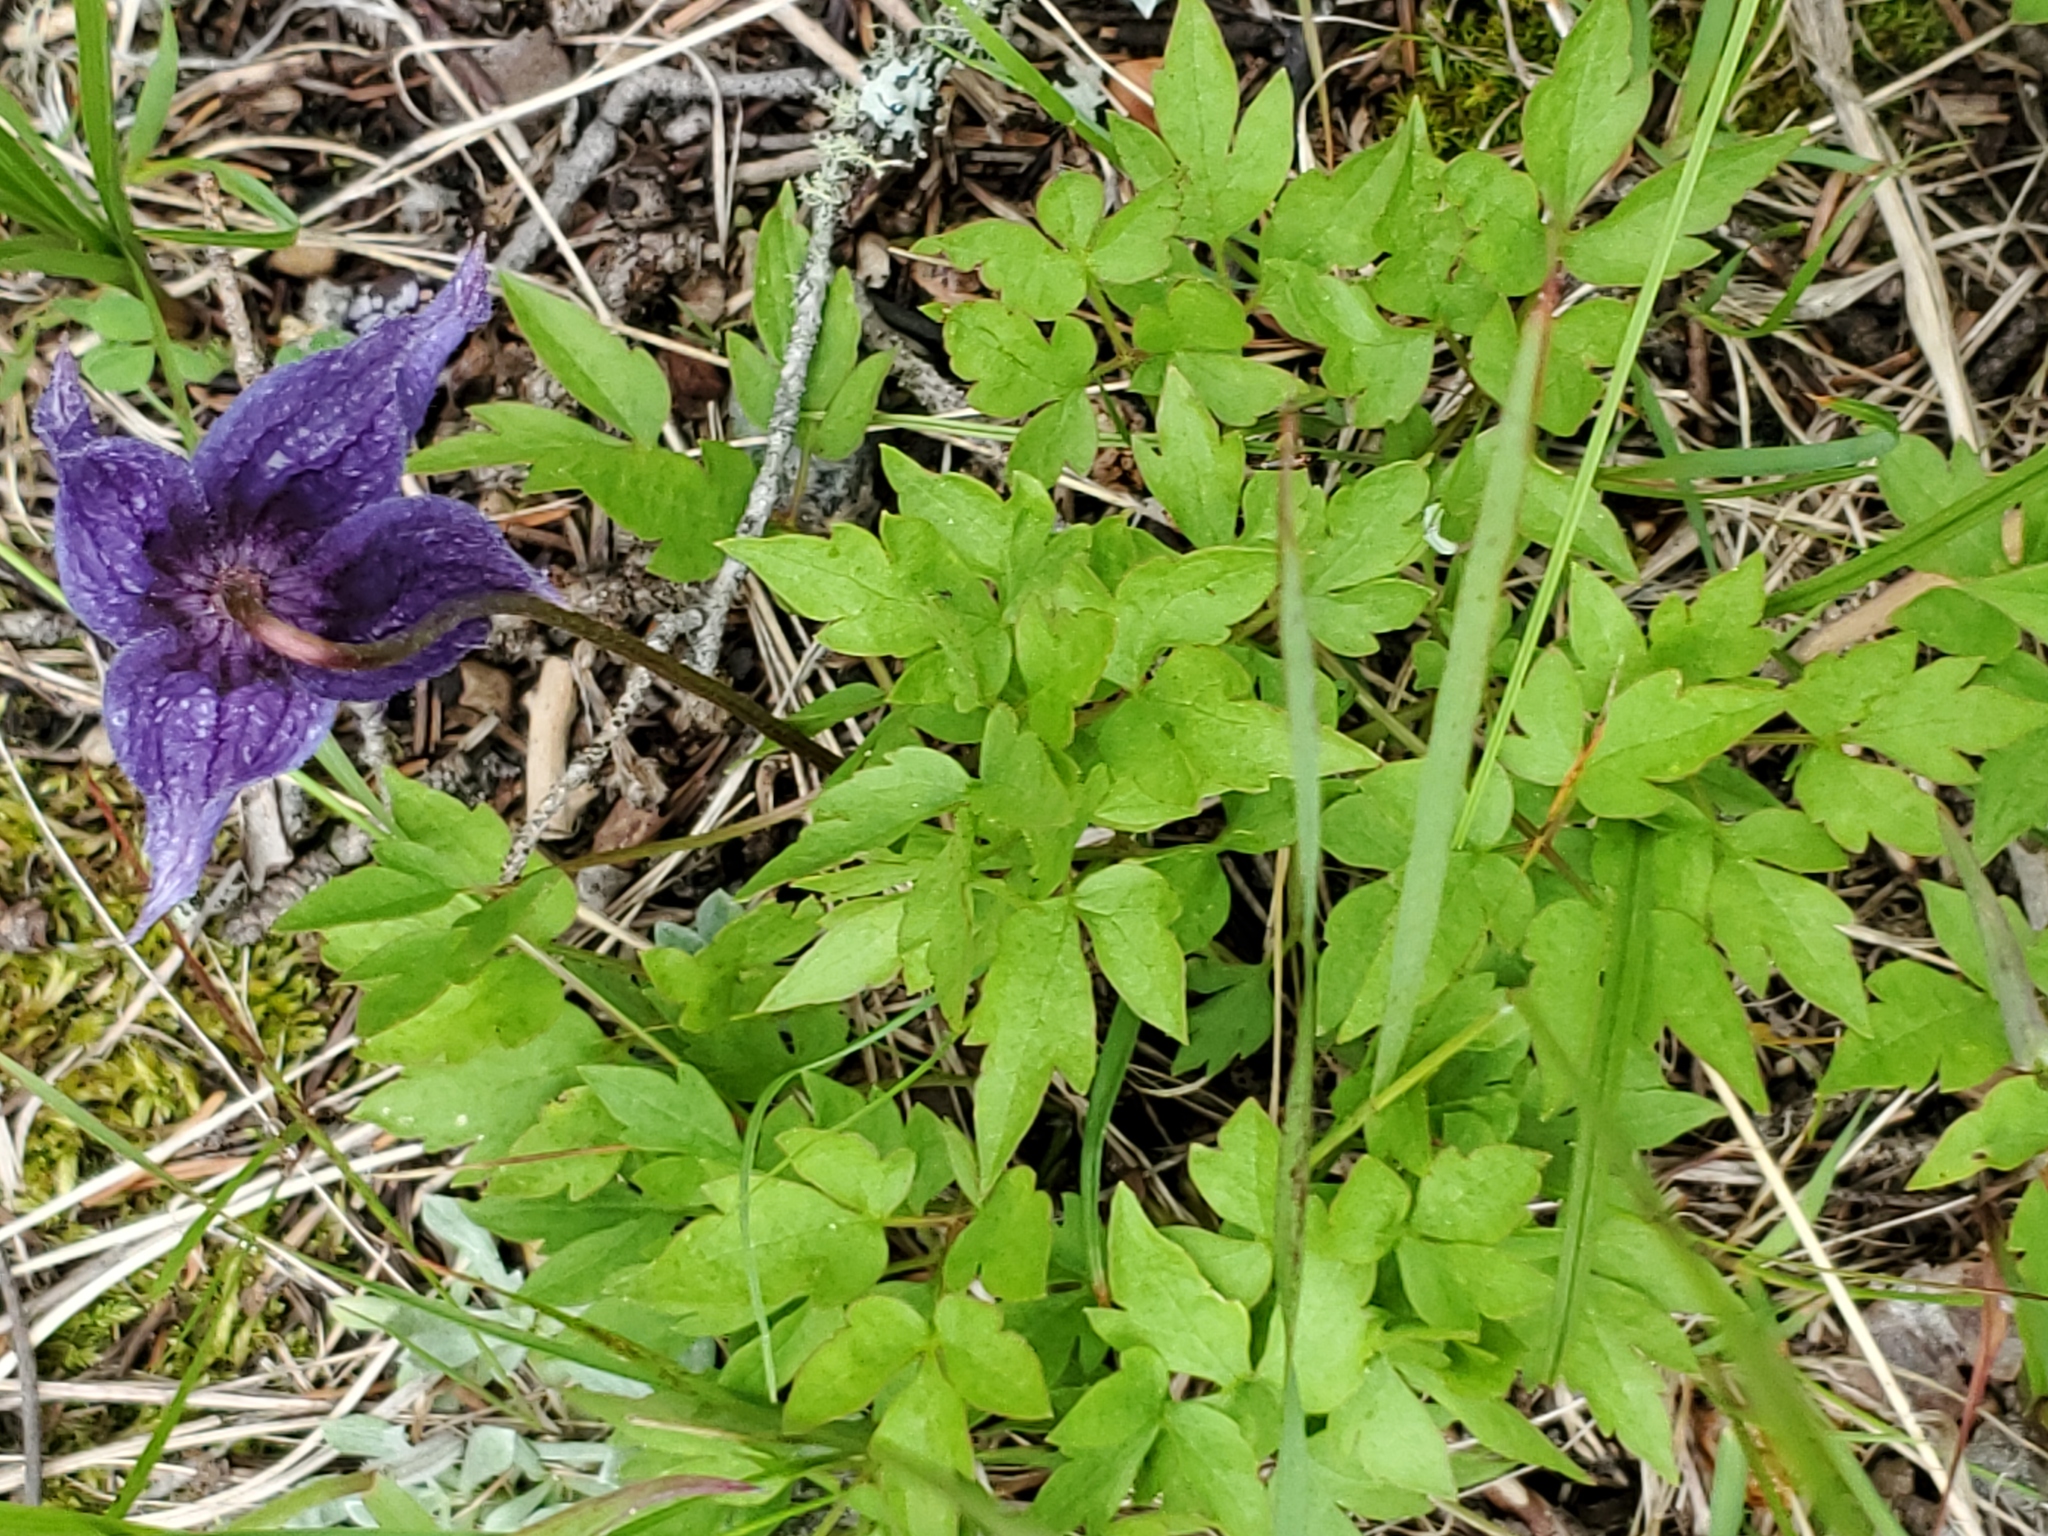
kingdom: Plantae
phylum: Tracheophyta
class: Magnoliopsida
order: Ranunculales
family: Ranunculaceae
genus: Clematis
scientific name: Clematis columbiana
